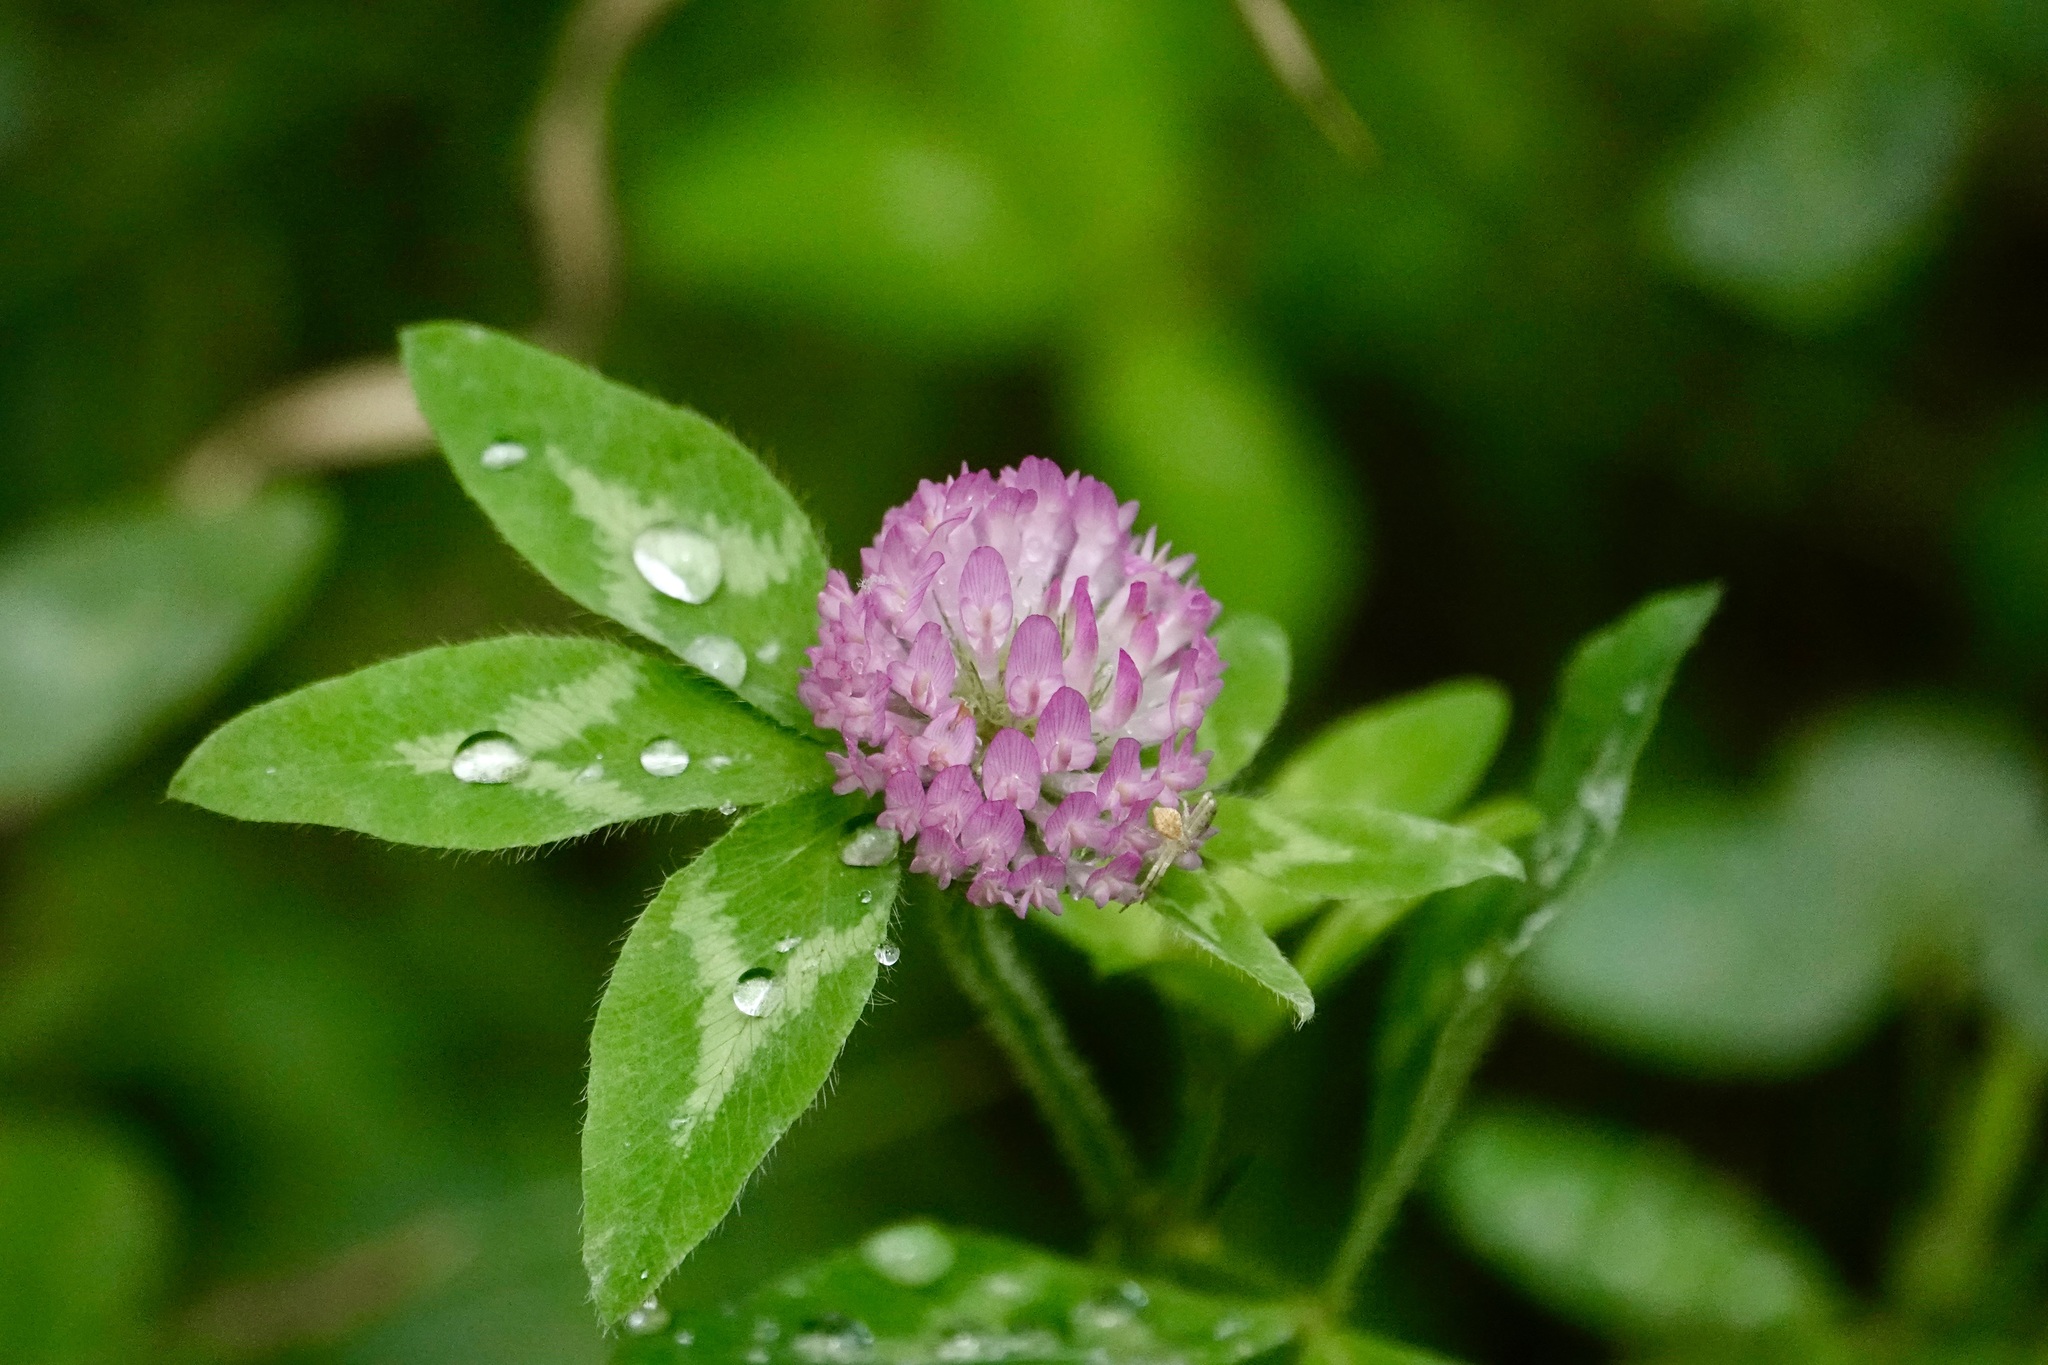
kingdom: Plantae
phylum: Tracheophyta
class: Magnoliopsida
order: Fabales
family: Fabaceae
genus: Trifolium
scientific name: Trifolium pratense
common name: Red clover
